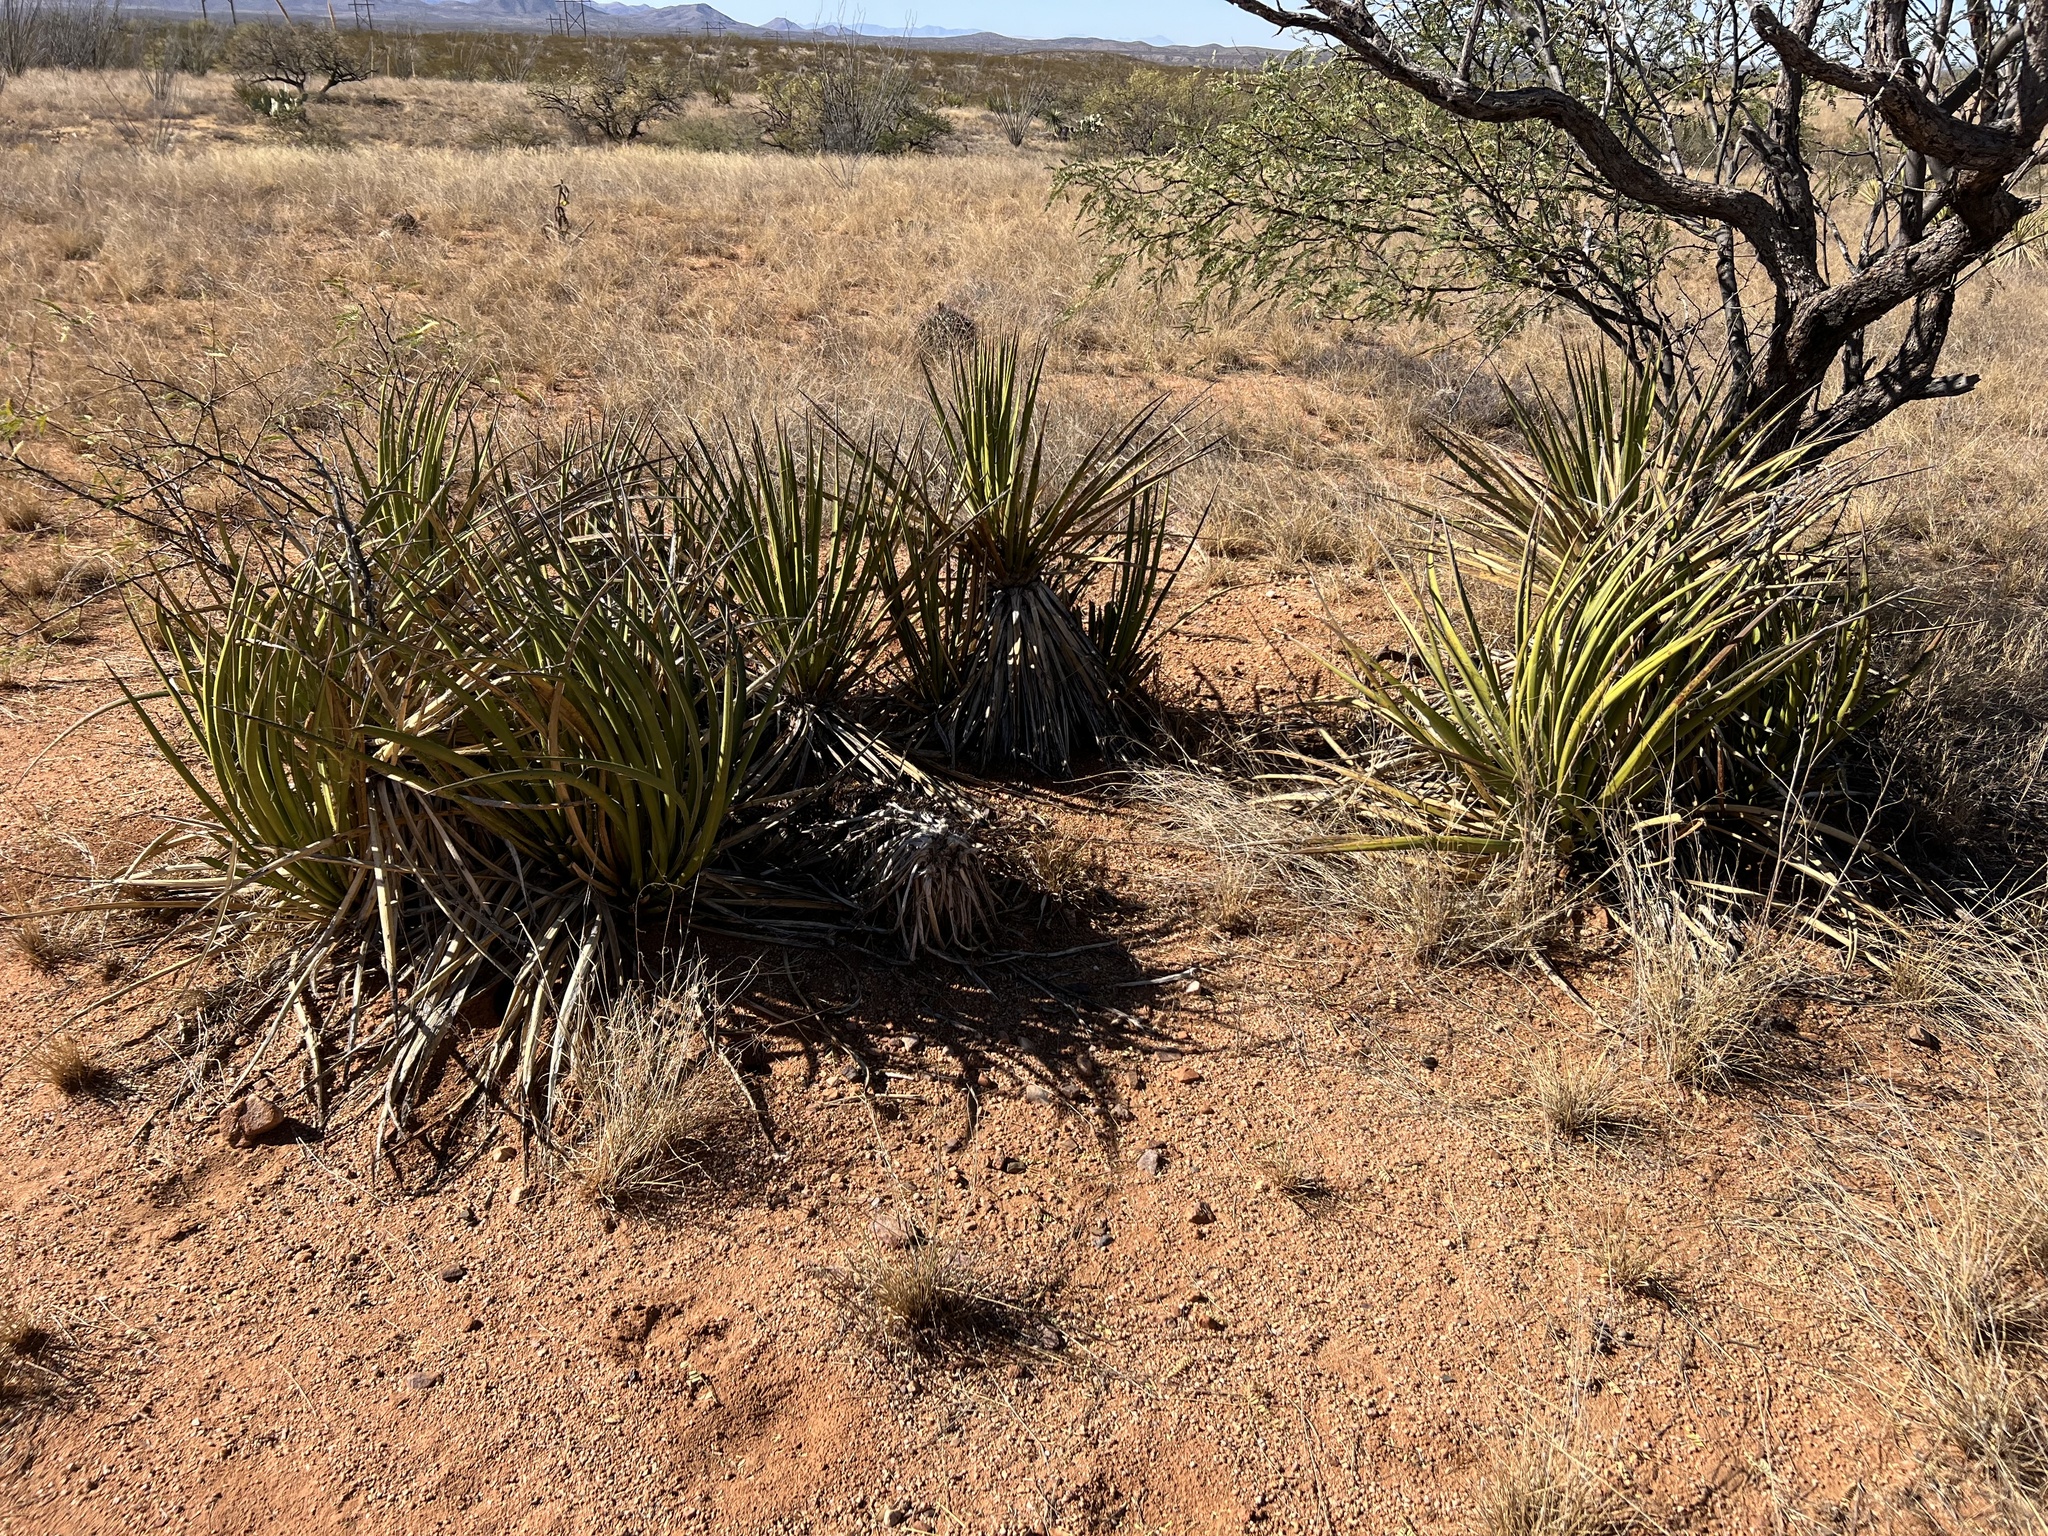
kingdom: Plantae
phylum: Tracheophyta
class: Liliopsida
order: Asparagales
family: Asparagaceae
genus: Yucca
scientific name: Yucca baccata
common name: Banana yucca
